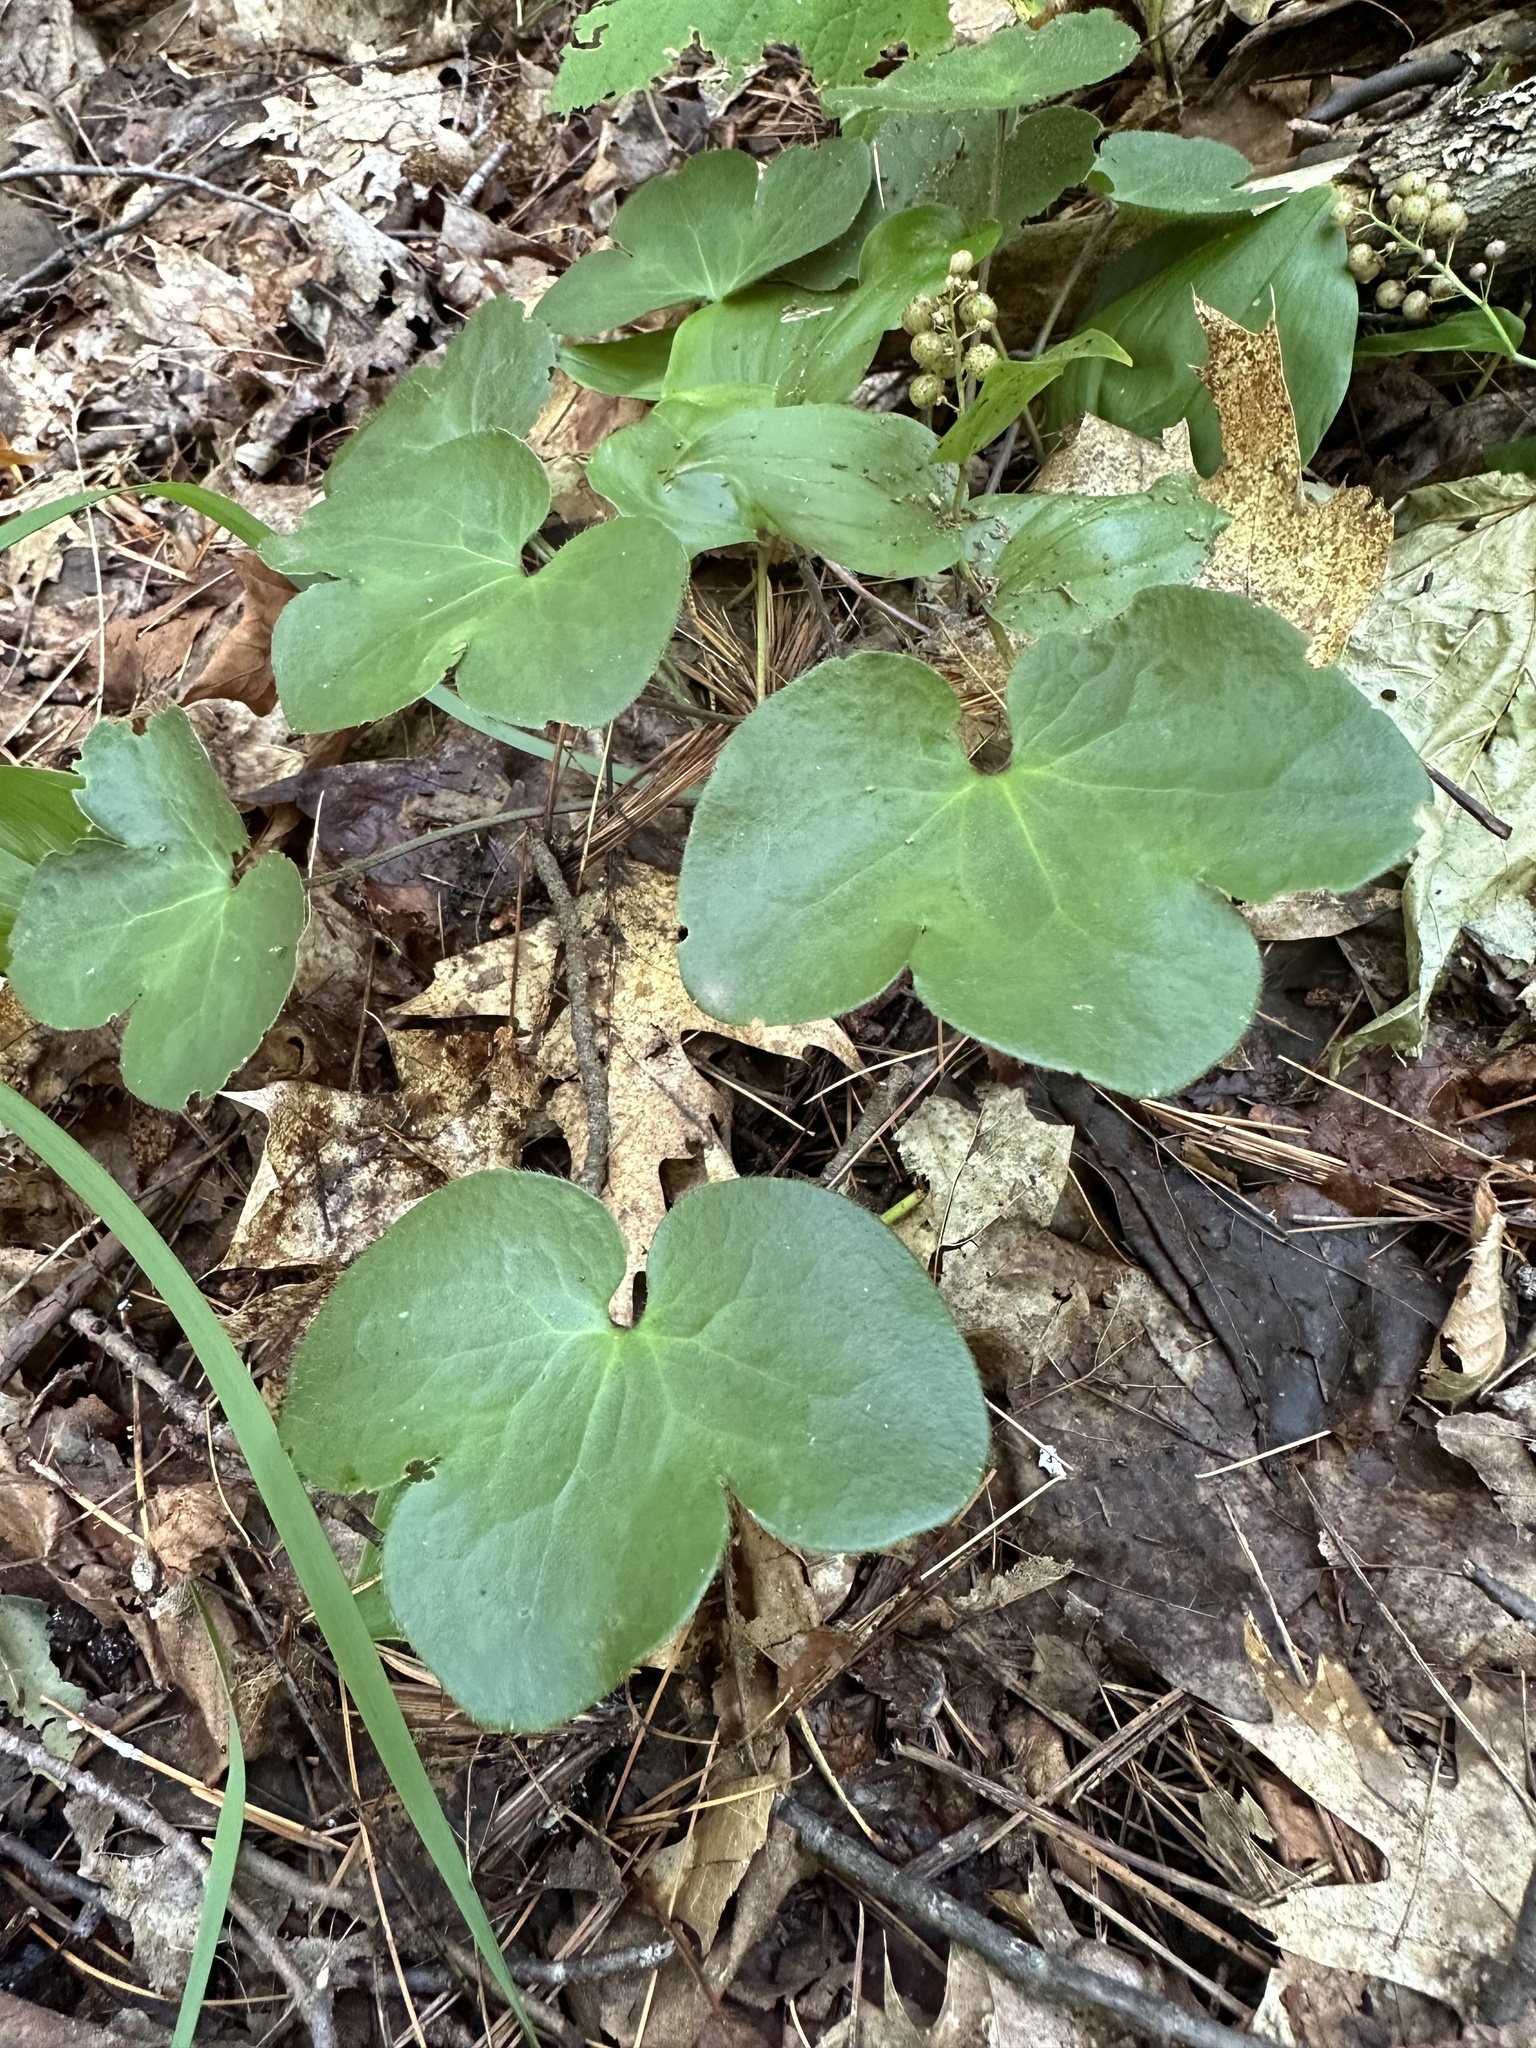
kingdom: Plantae
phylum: Tracheophyta
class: Magnoliopsida
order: Ranunculales
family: Ranunculaceae
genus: Hepatica
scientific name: Hepatica americana
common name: American hepatica
